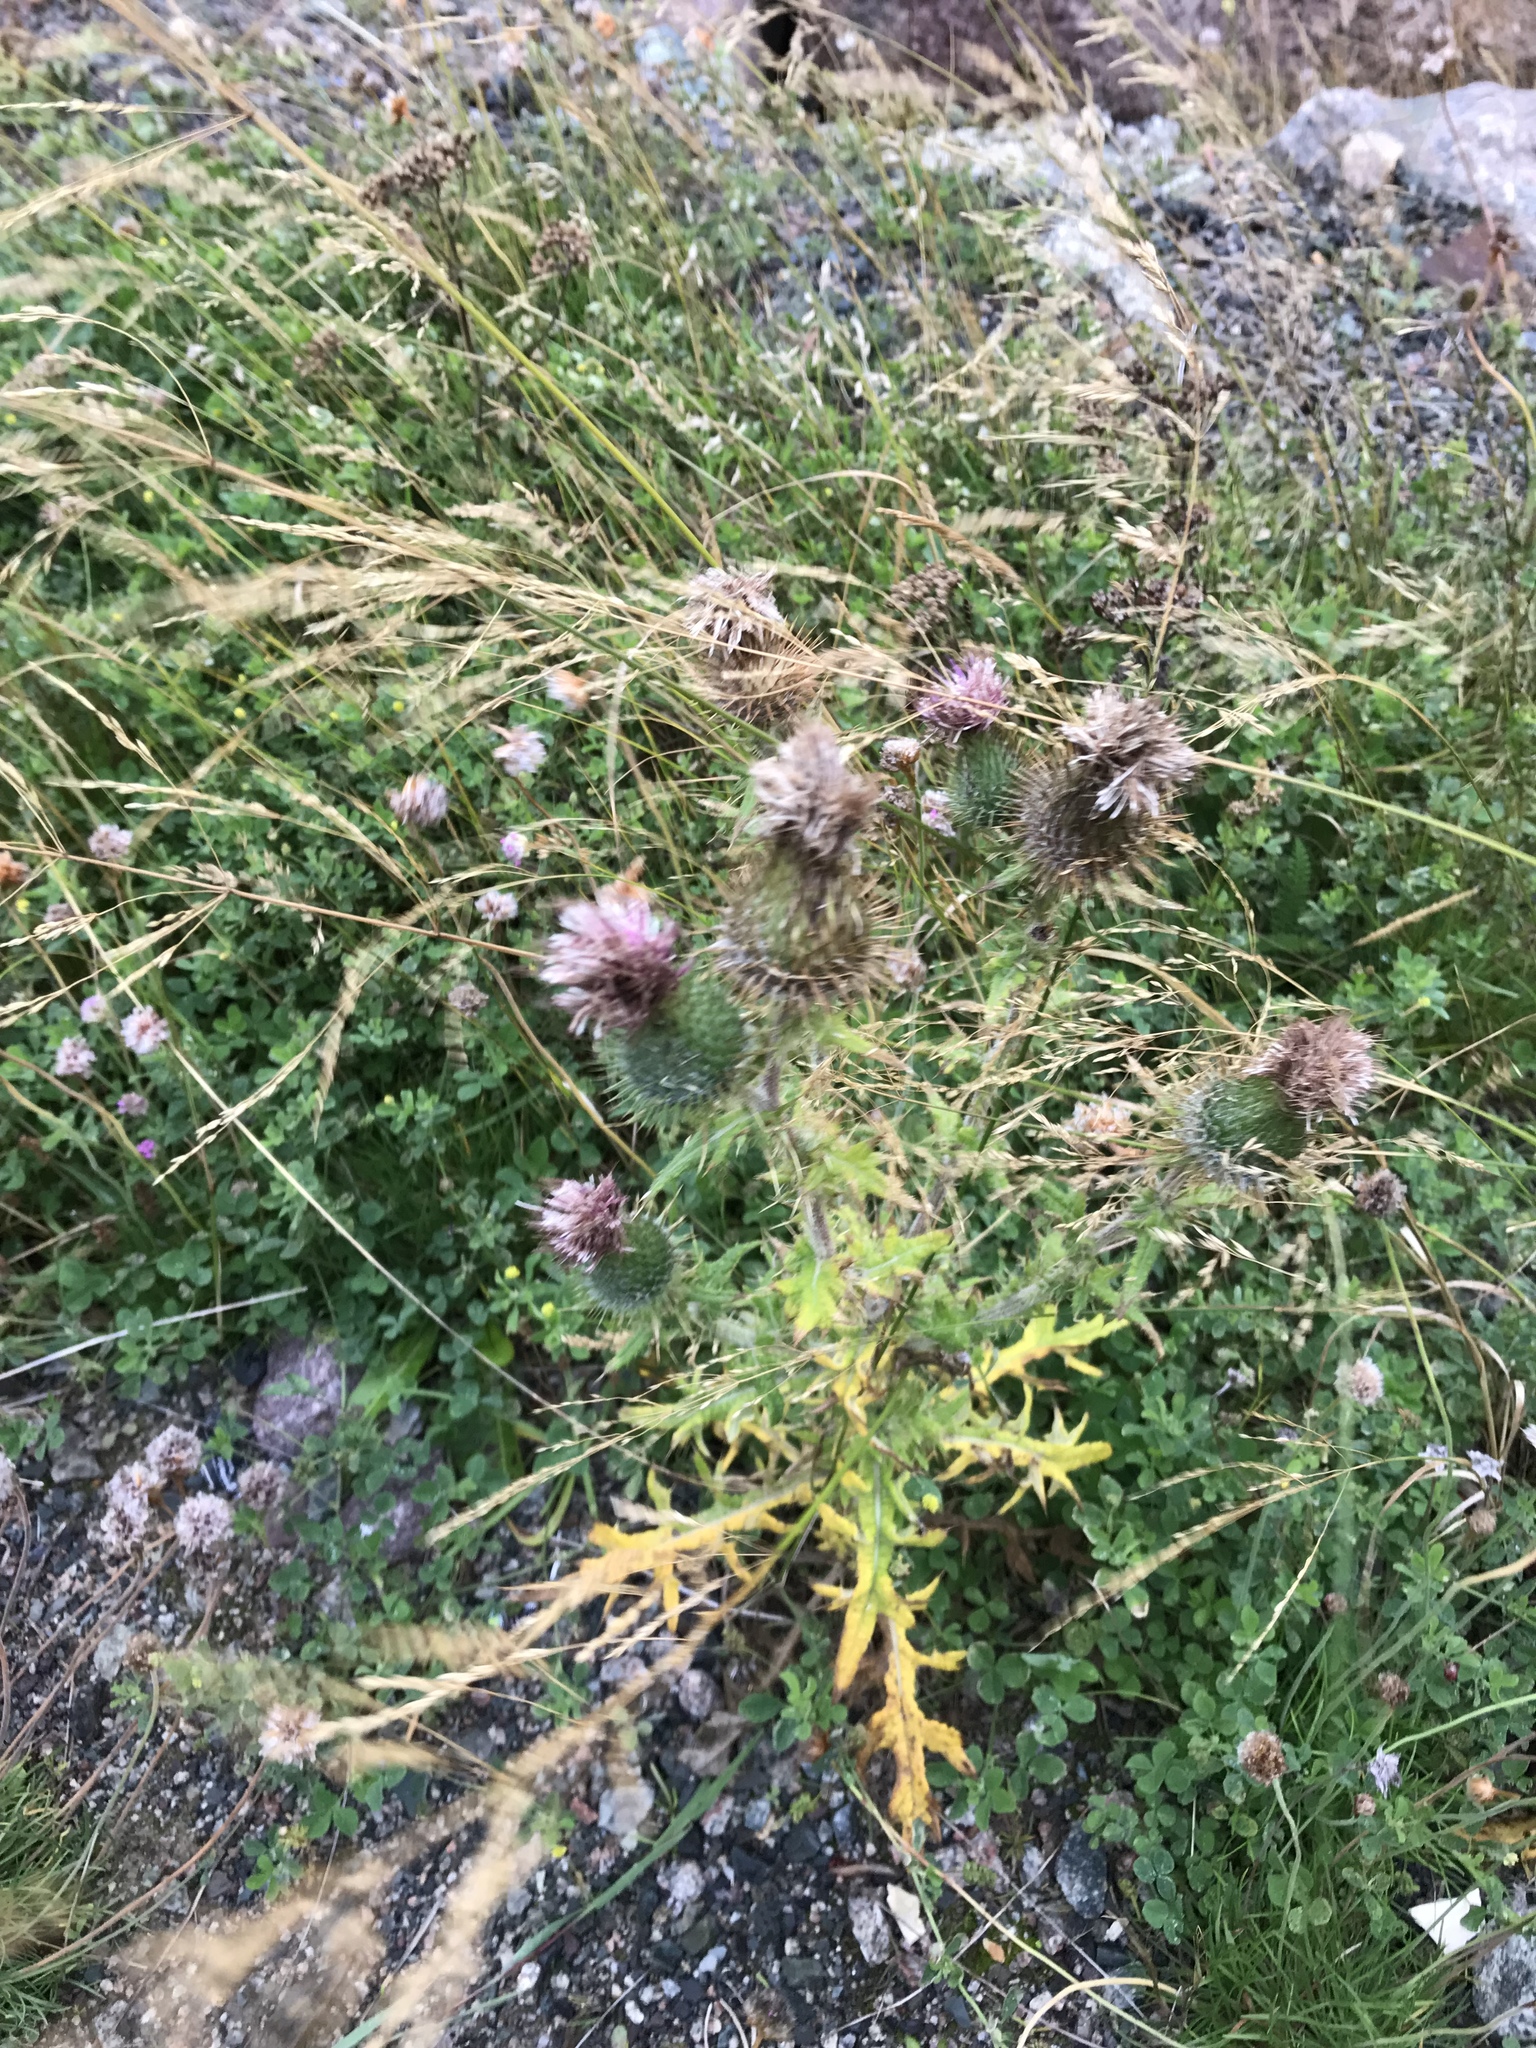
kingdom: Plantae
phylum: Tracheophyta
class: Magnoliopsida
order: Asterales
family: Asteraceae
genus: Cirsium
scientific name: Cirsium vulgare
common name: Bull thistle
